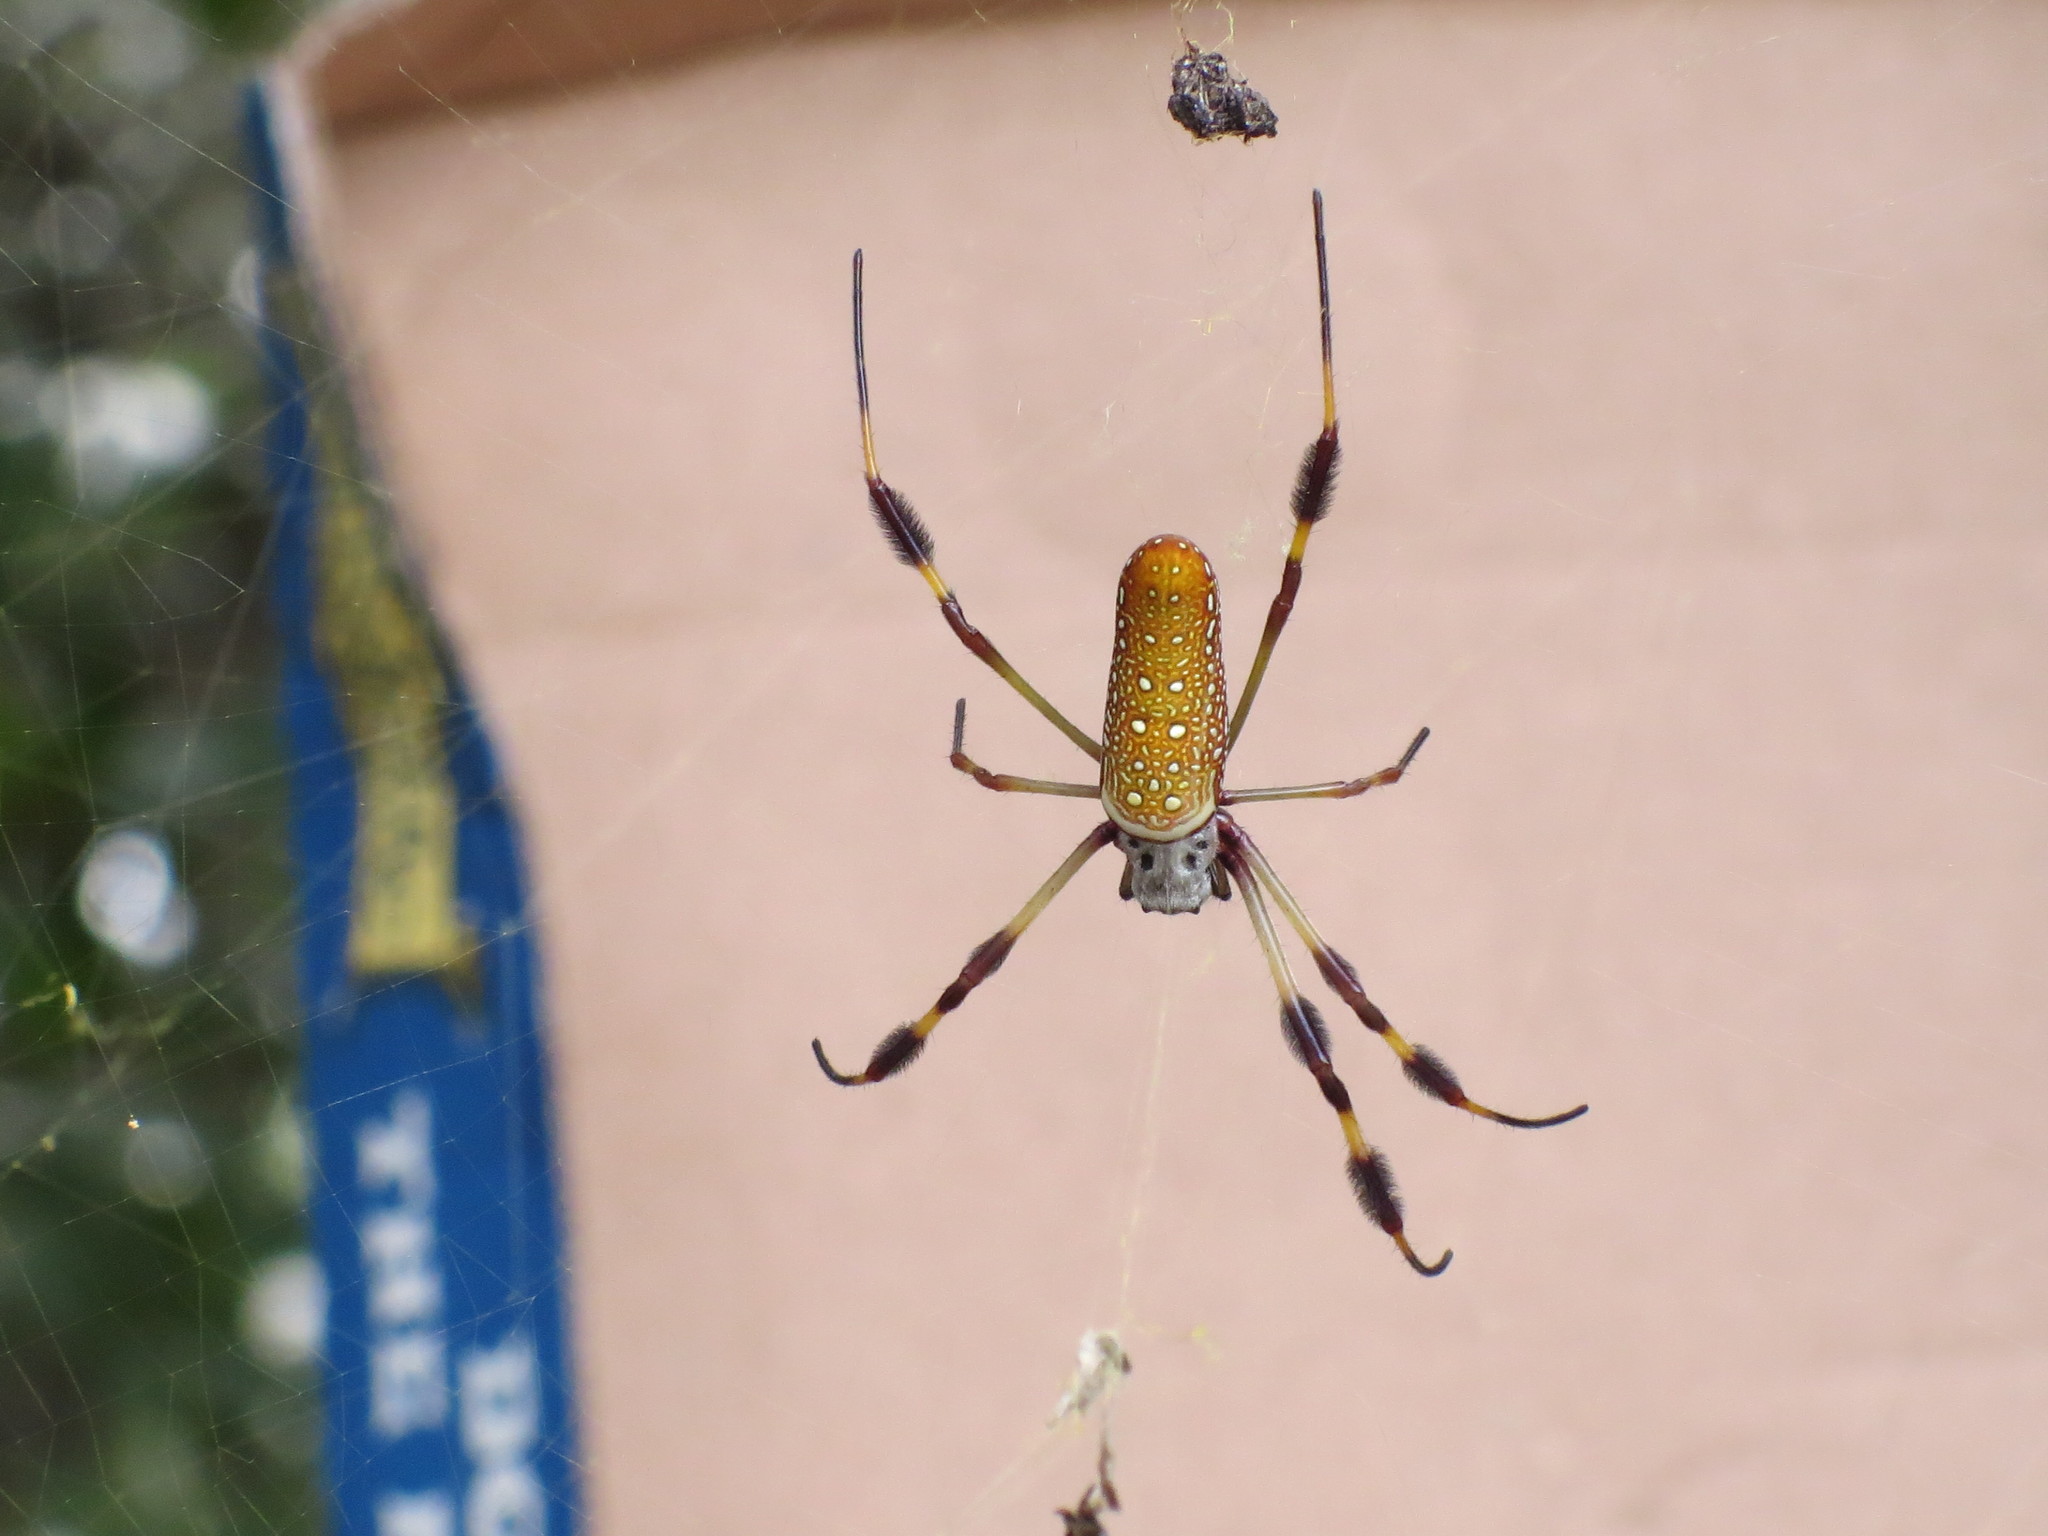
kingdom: Animalia
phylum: Arthropoda
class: Arachnida
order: Araneae
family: Araneidae
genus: Trichonephila
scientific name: Trichonephila clavipes
